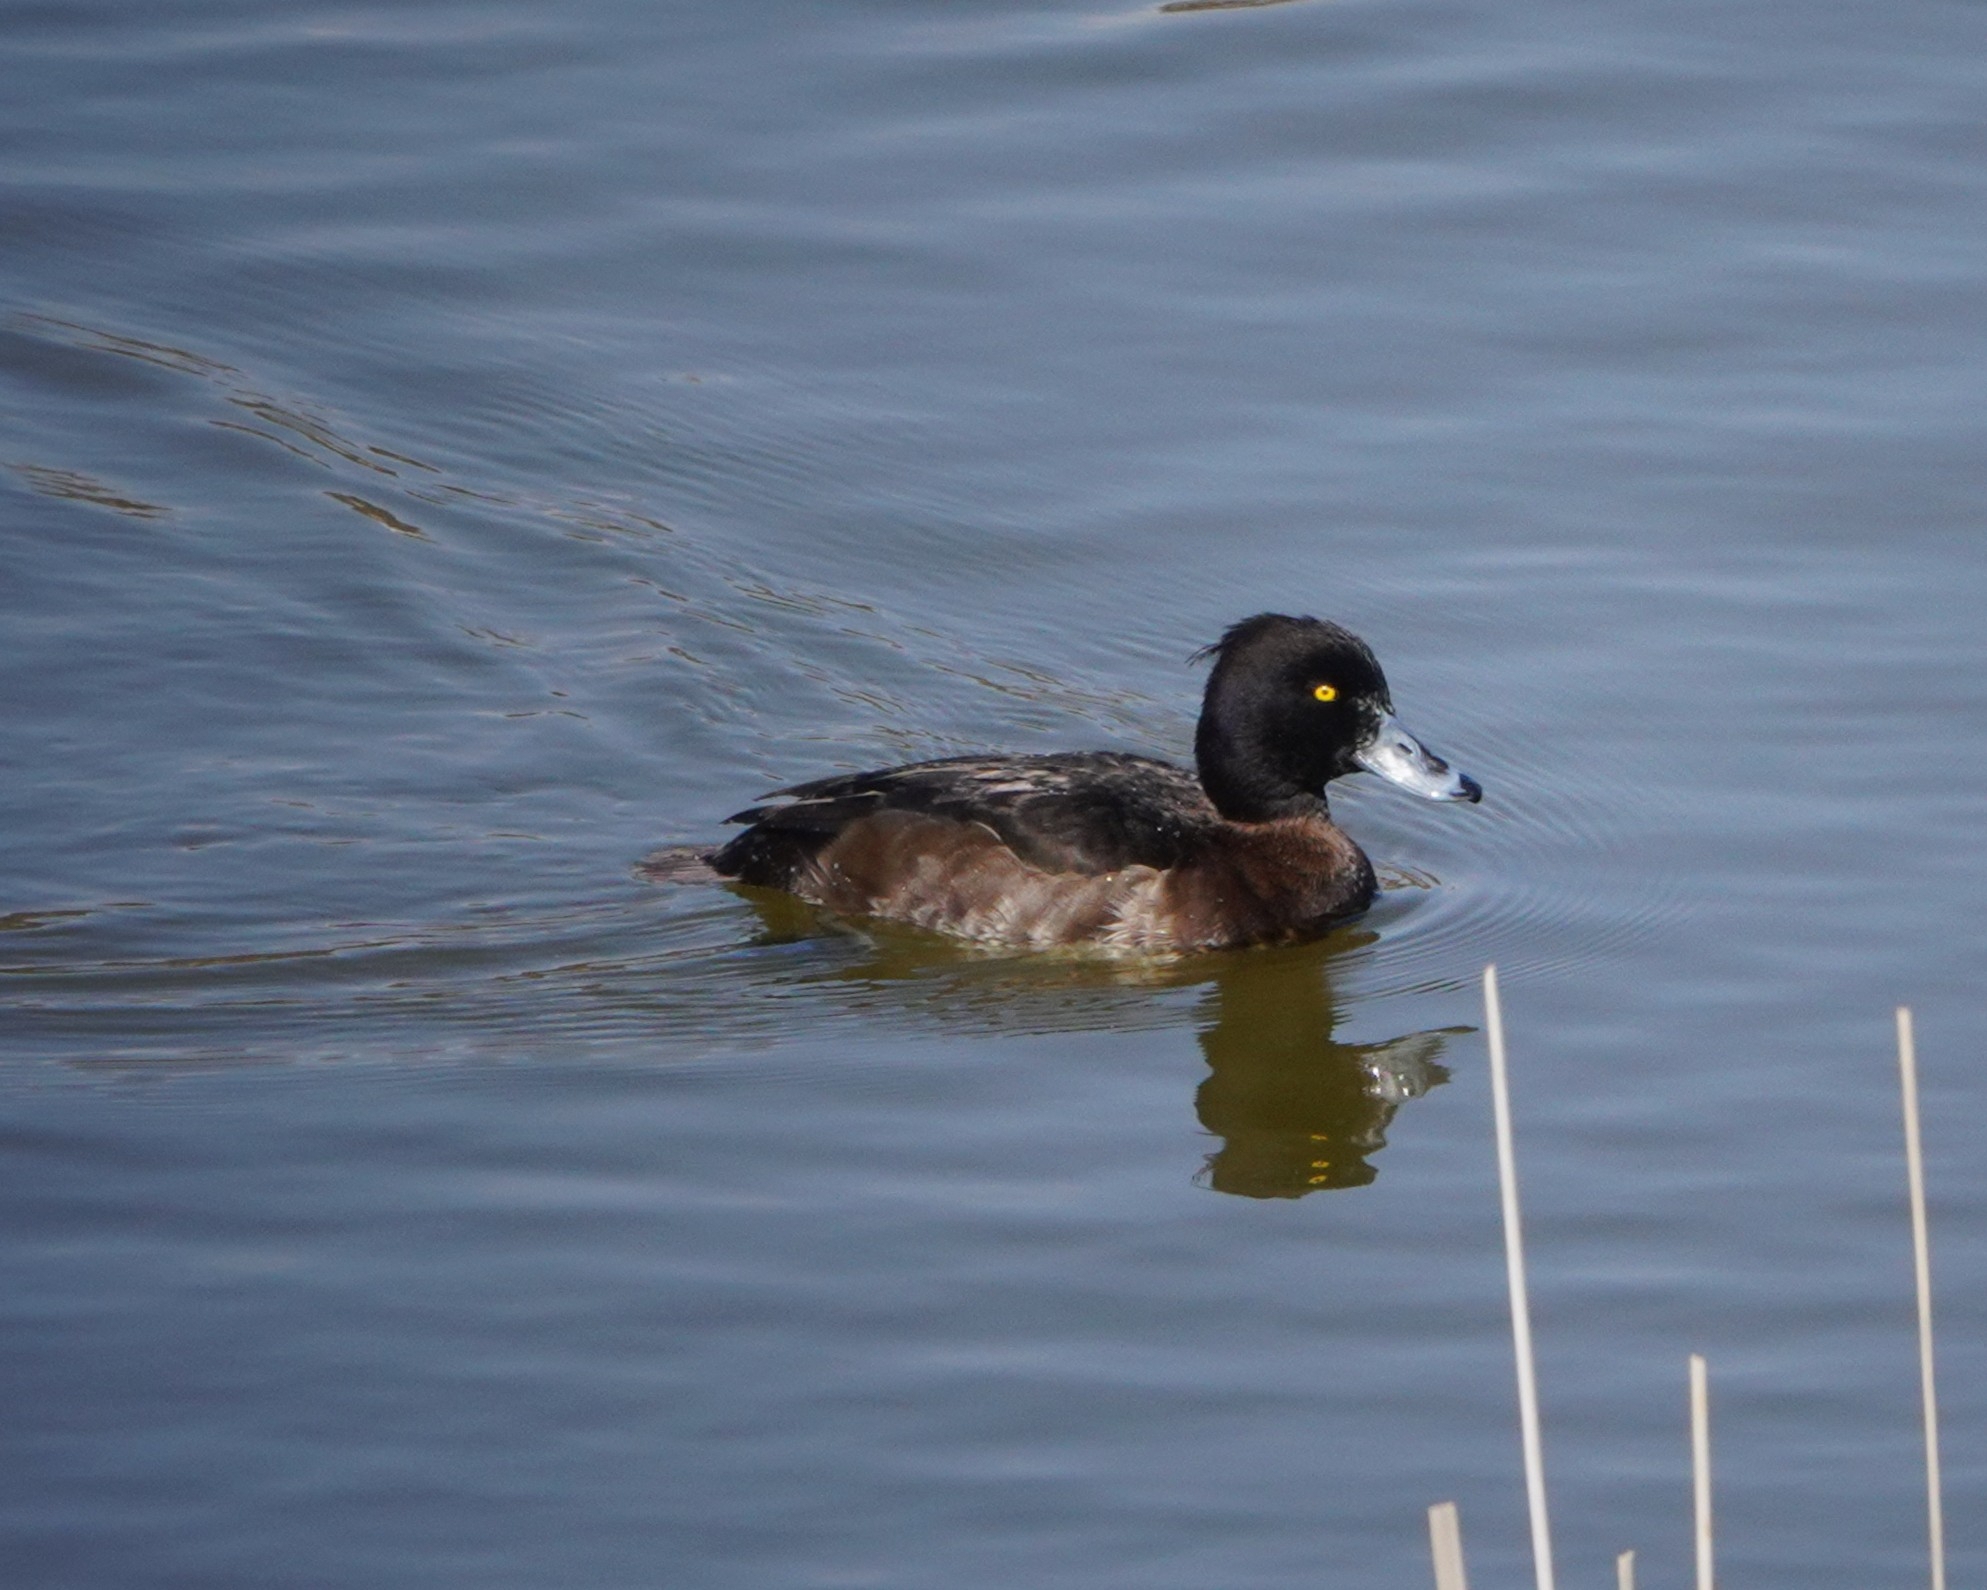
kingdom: Animalia
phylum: Chordata
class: Aves
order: Anseriformes
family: Anatidae
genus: Aythya
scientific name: Aythya fuligula
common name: Tufted duck
